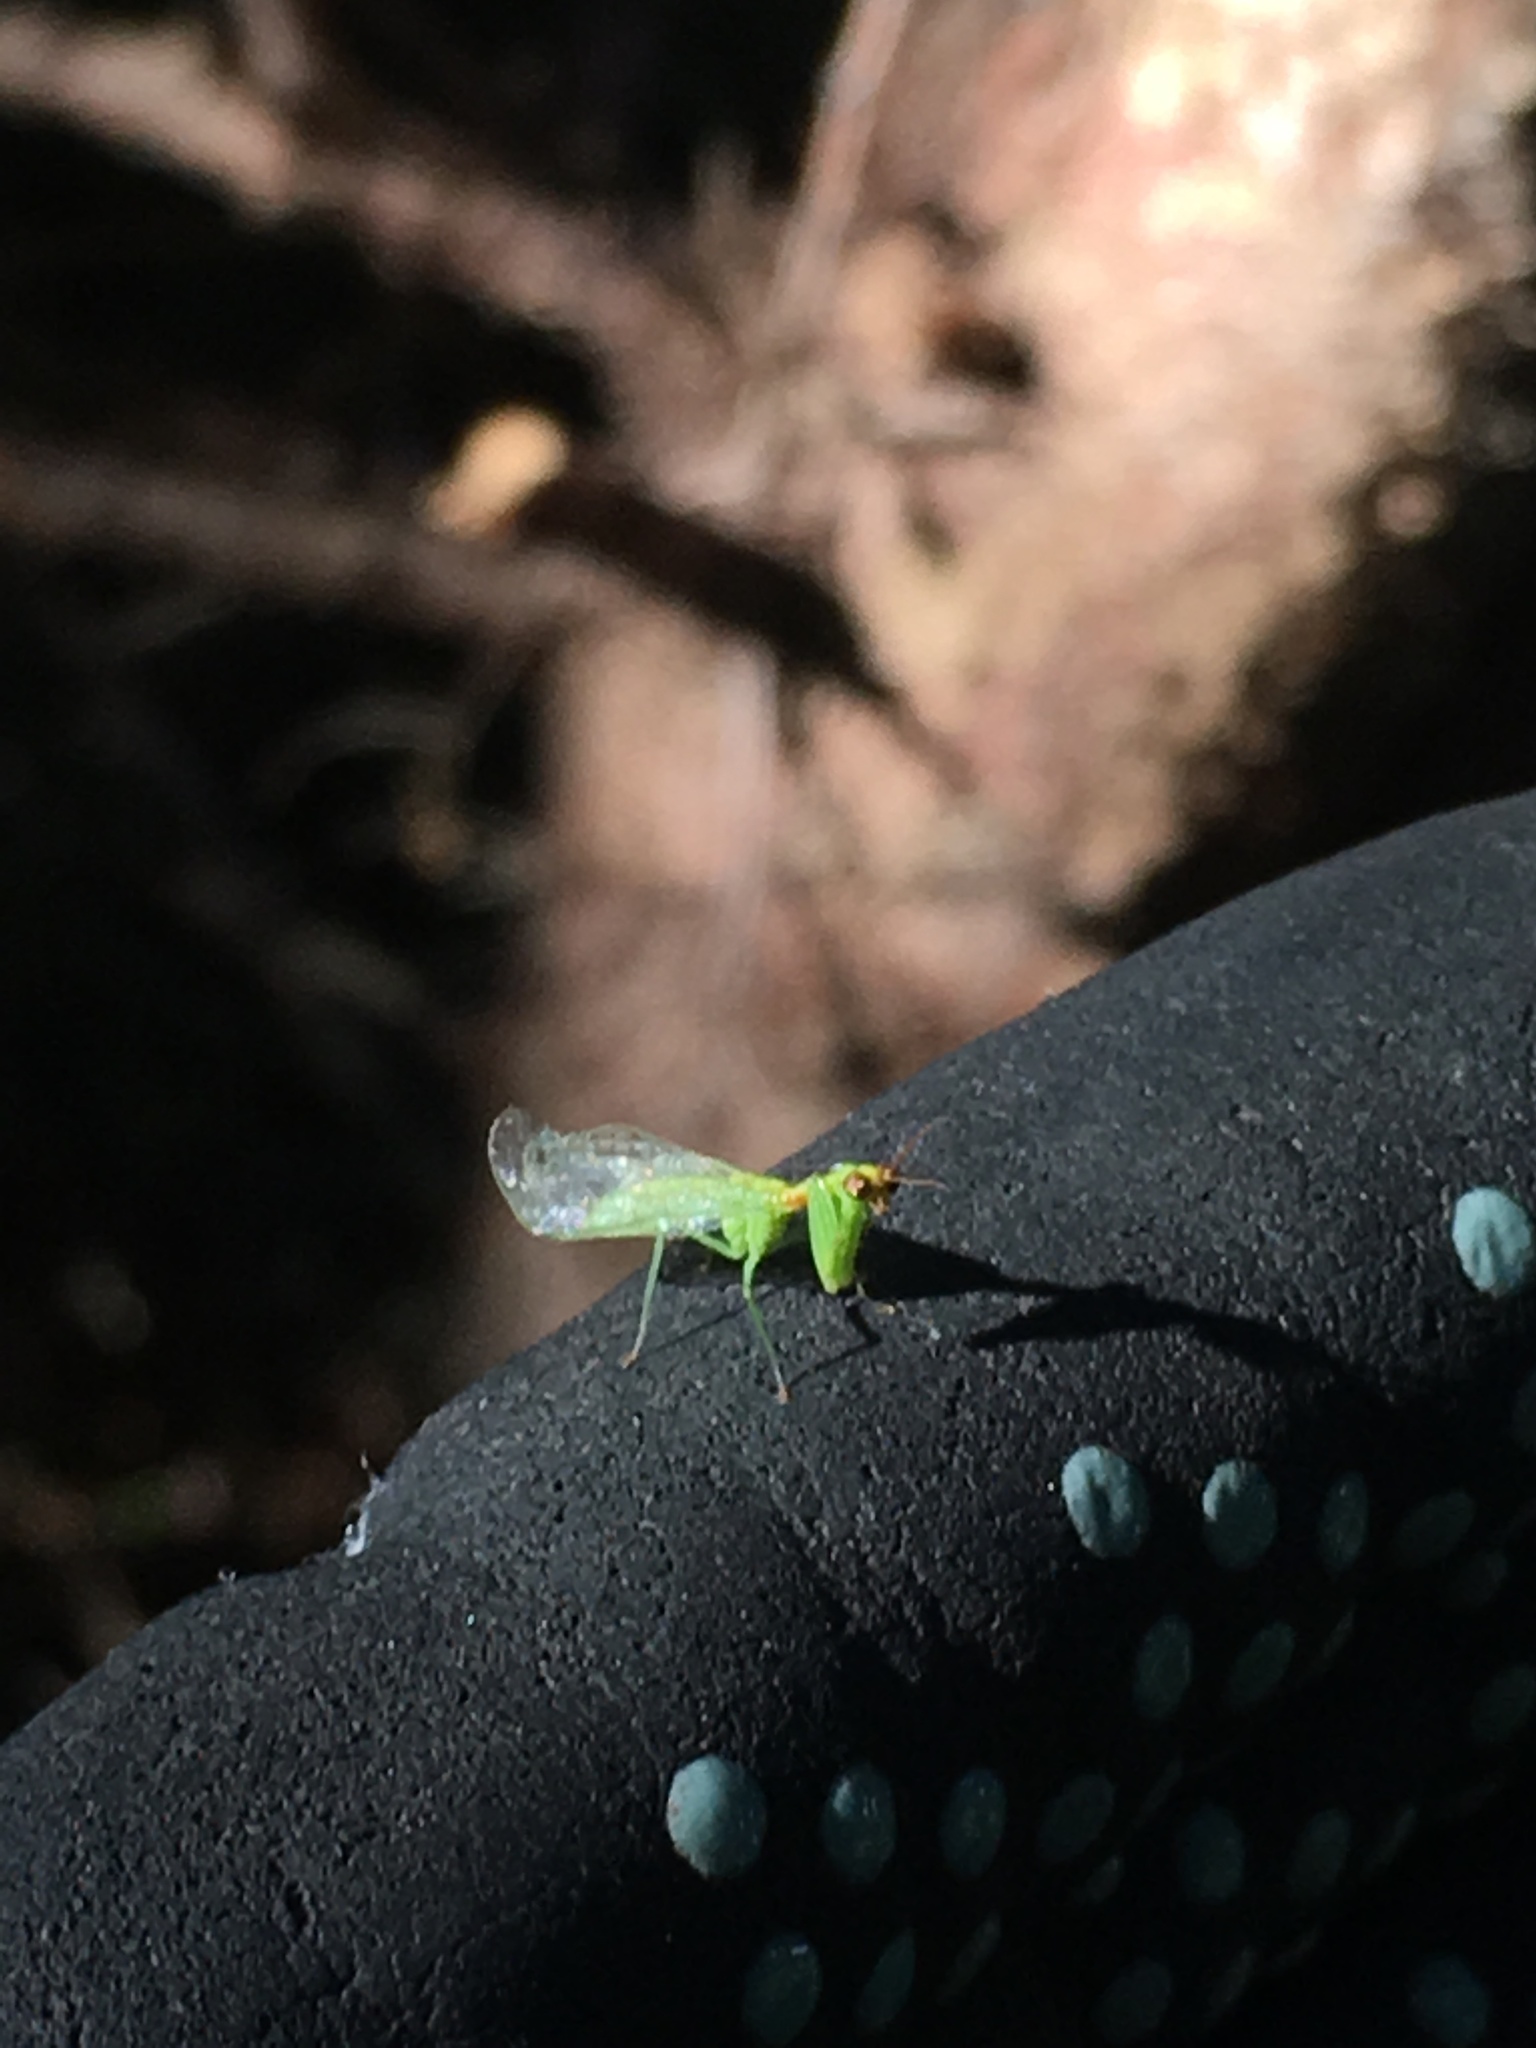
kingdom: Animalia
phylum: Arthropoda
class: Insecta
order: Neuroptera
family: Mantispidae
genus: Zeugomantispa
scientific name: Zeugomantispa minuta
